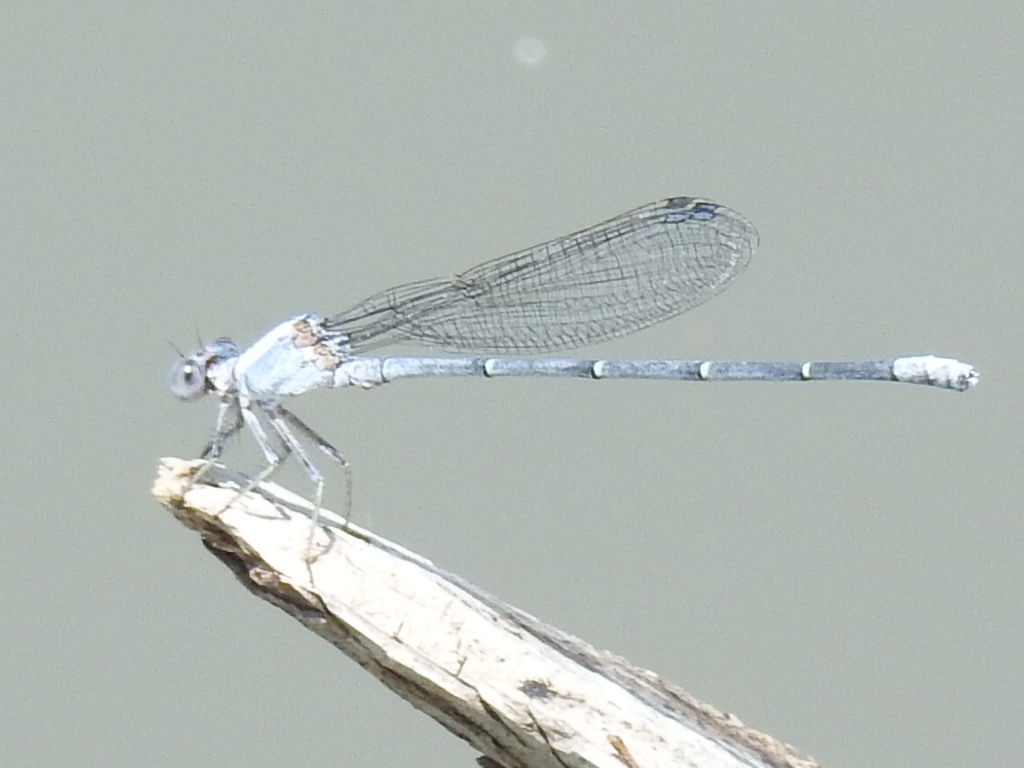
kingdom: Animalia
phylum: Arthropoda
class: Insecta
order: Odonata
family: Coenagrionidae
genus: Argia
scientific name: Argia moesta
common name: Powdered dancer
